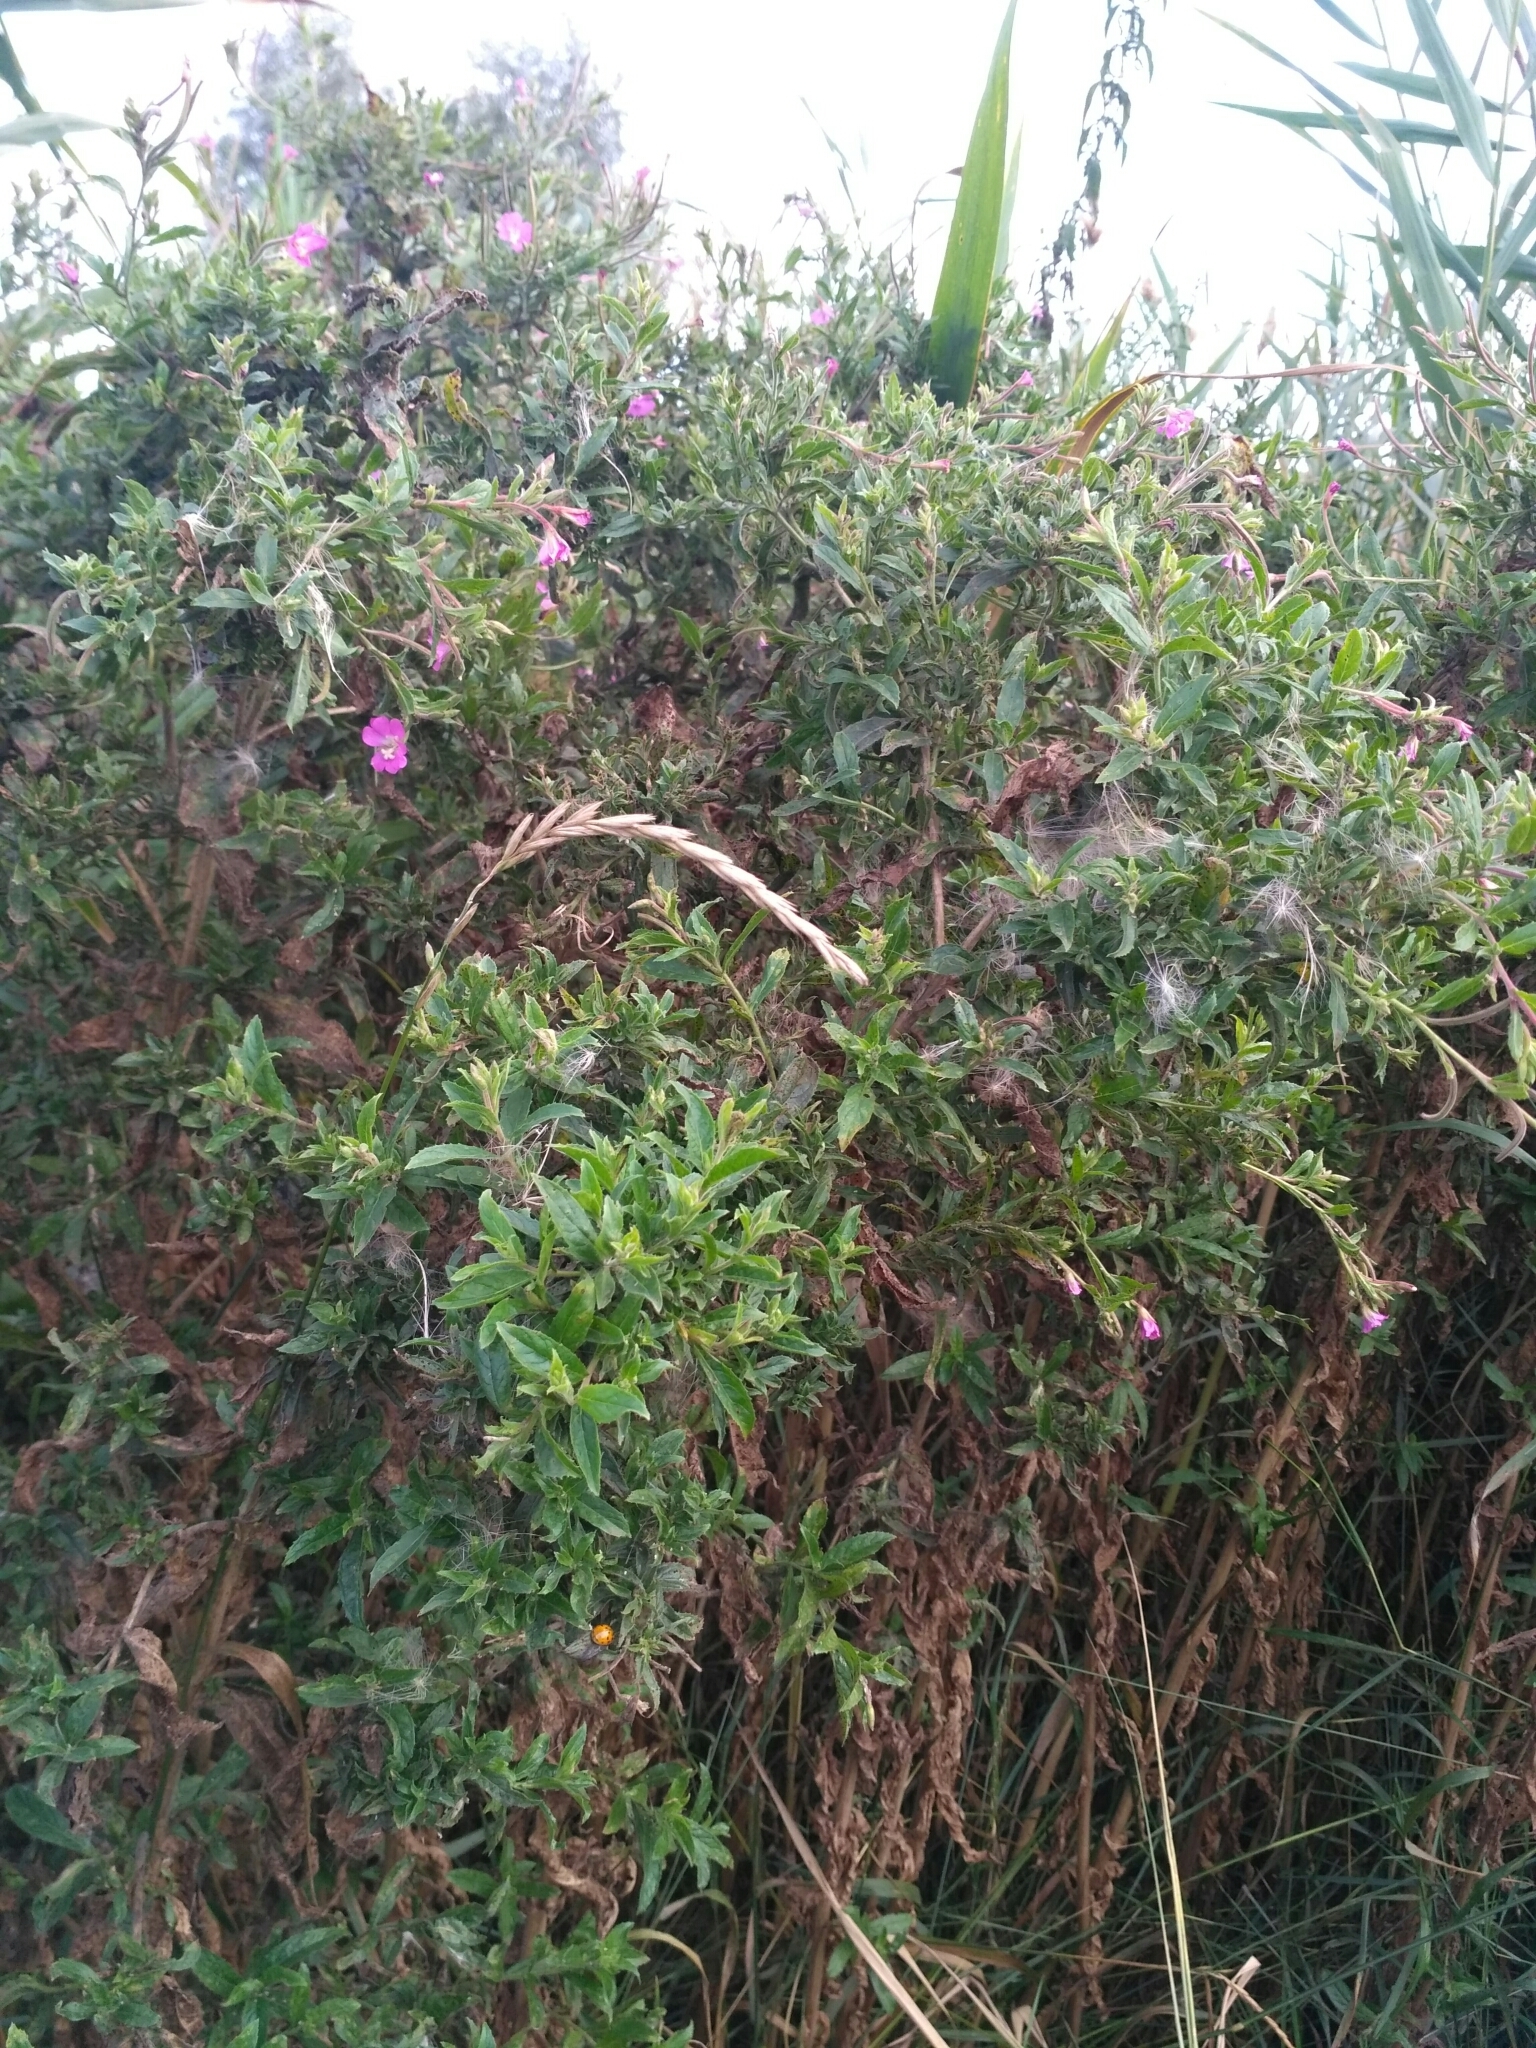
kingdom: Plantae
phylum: Tracheophyta
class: Magnoliopsida
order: Myrtales
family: Onagraceae
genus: Epilobium
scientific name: Epilobium hirsutum
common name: Great willowherb
